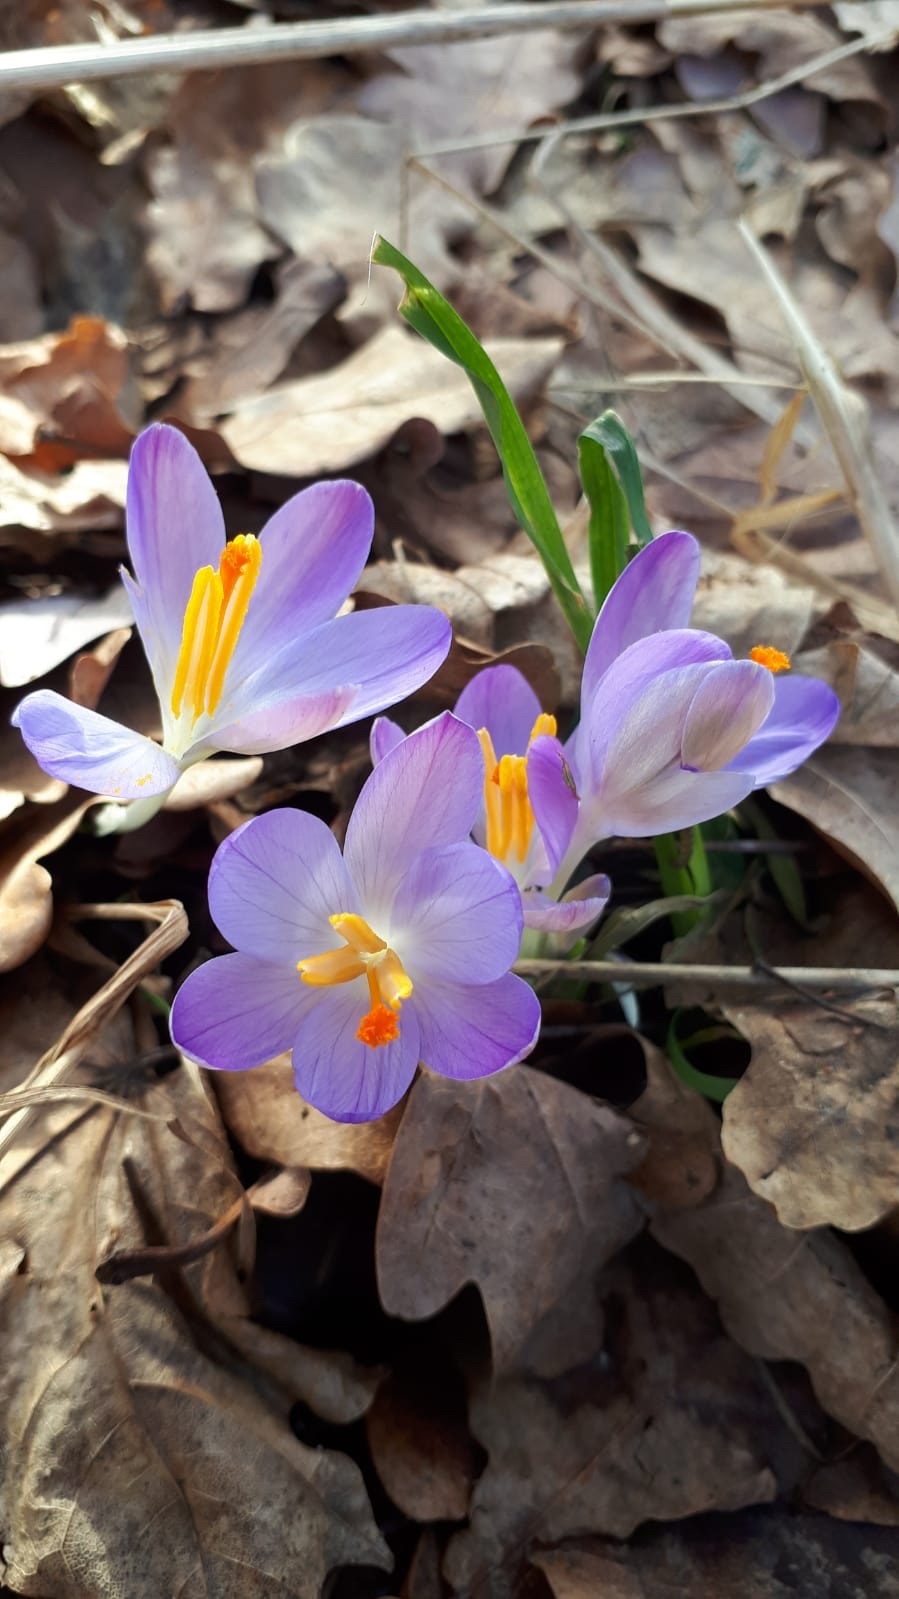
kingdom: Plantae
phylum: Tracheophyta
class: Liliopsida
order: Asparagales
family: Iridaceae
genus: Crocus
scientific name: Crocus tommasinianus
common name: Early crocus
